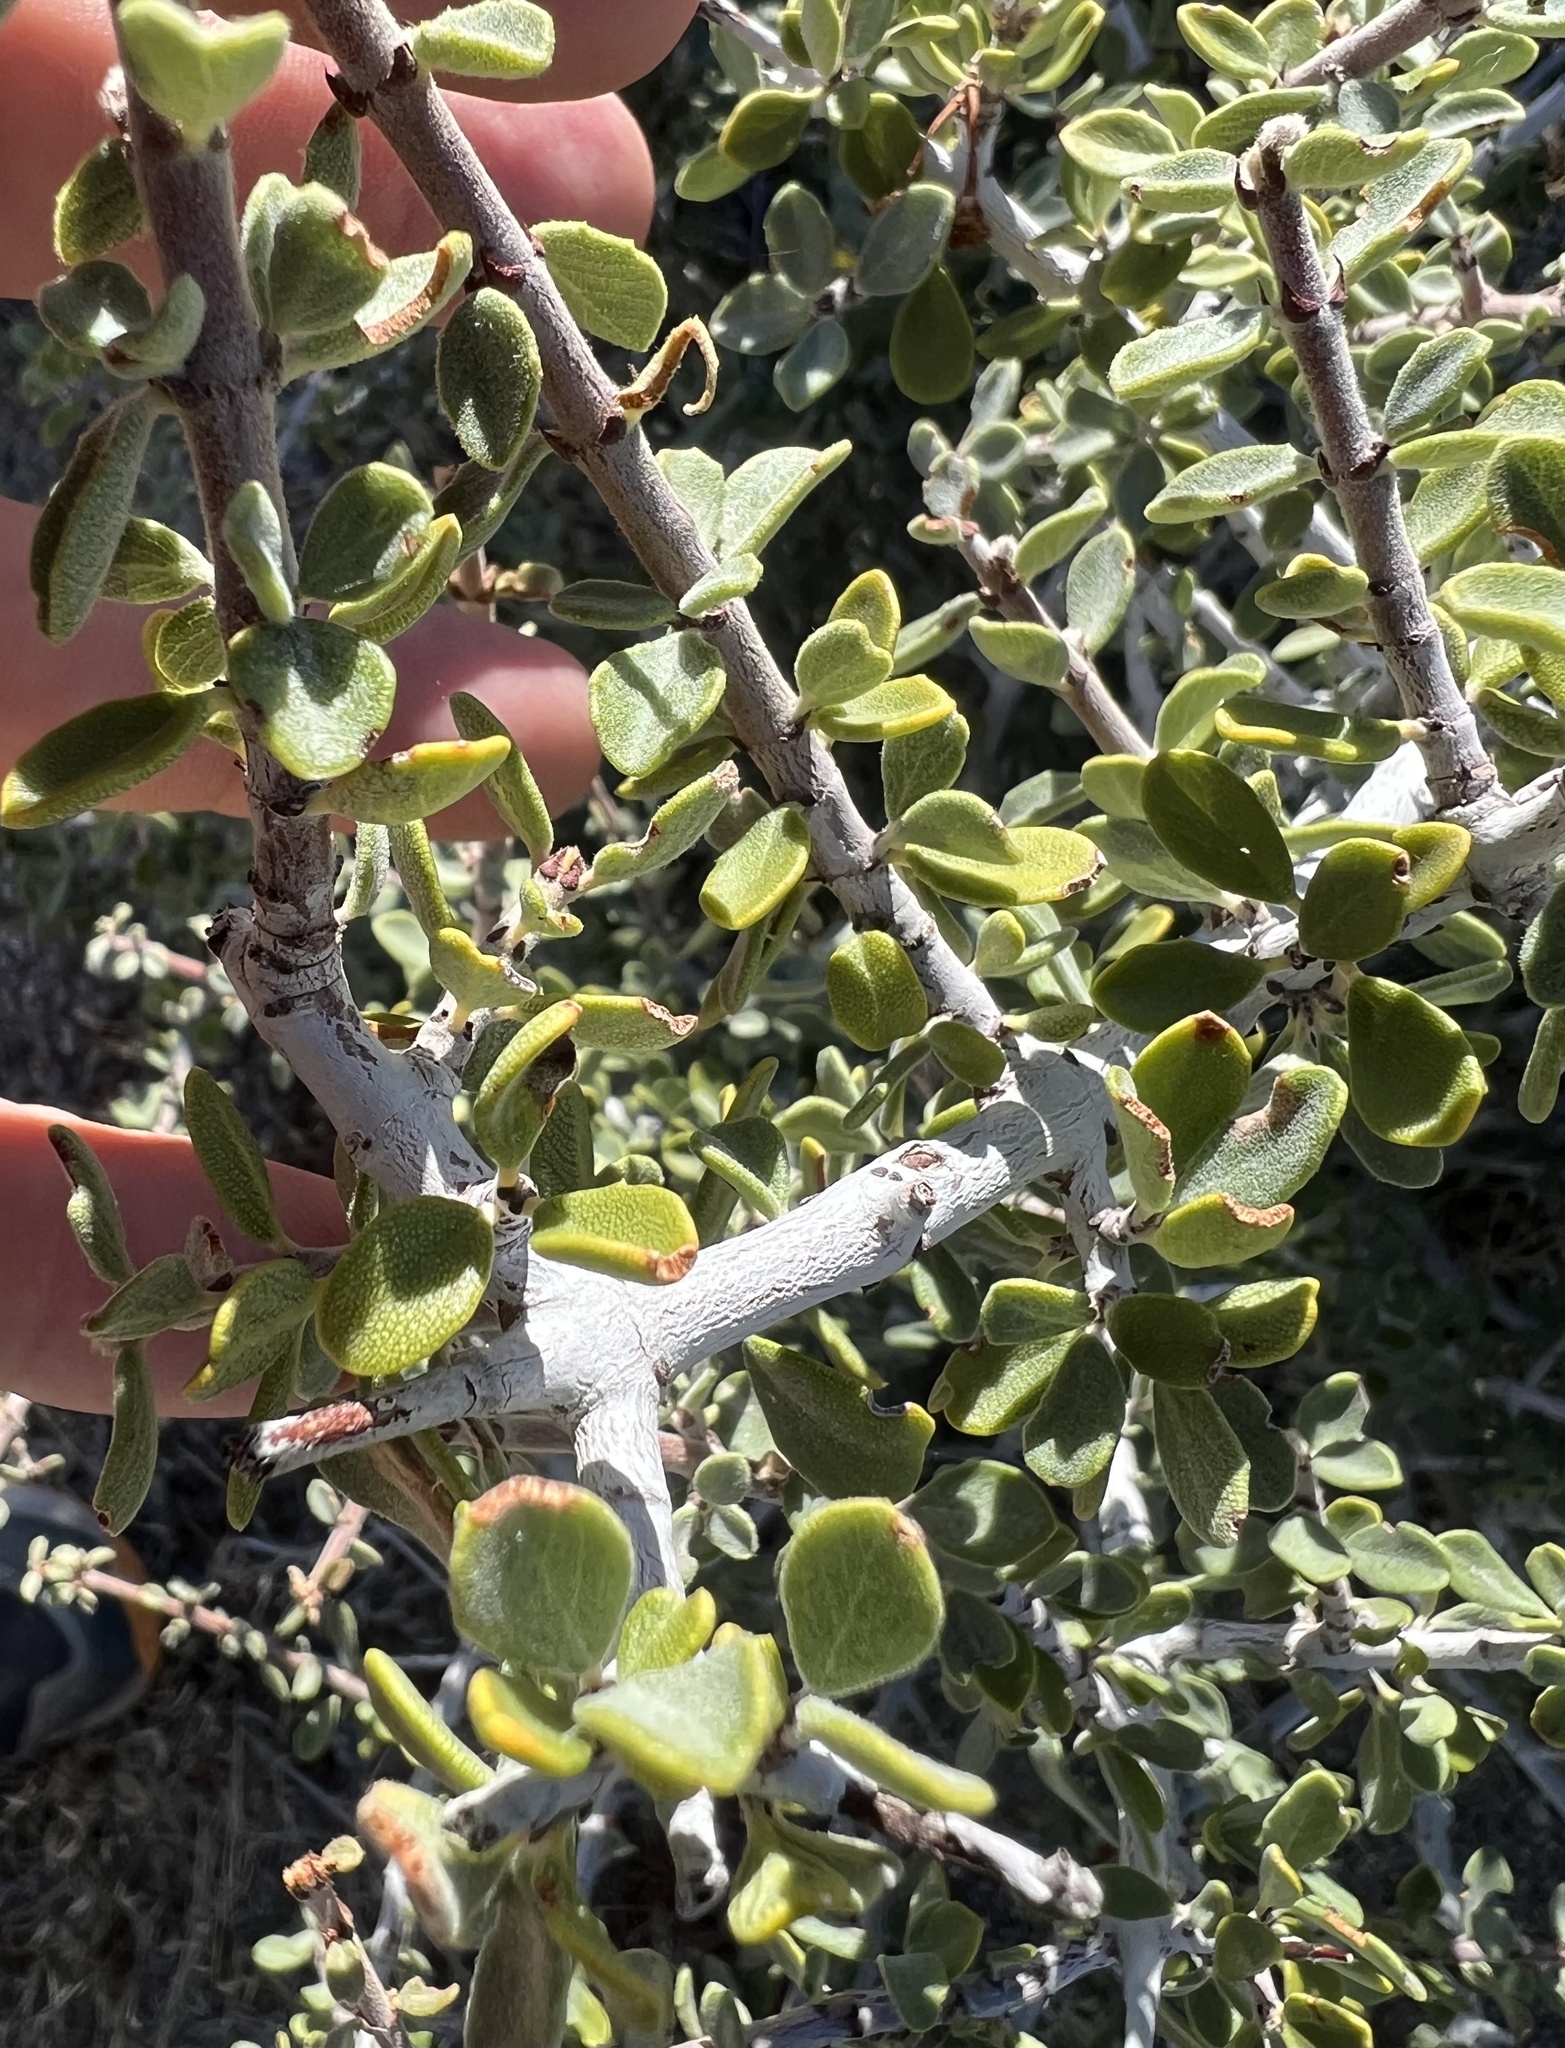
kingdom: Plantae
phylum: Tracheophyta
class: Magnoliopsida
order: Rosales
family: Rhamnaceae
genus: Ceanothus
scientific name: Ceanothus pauciflorus
